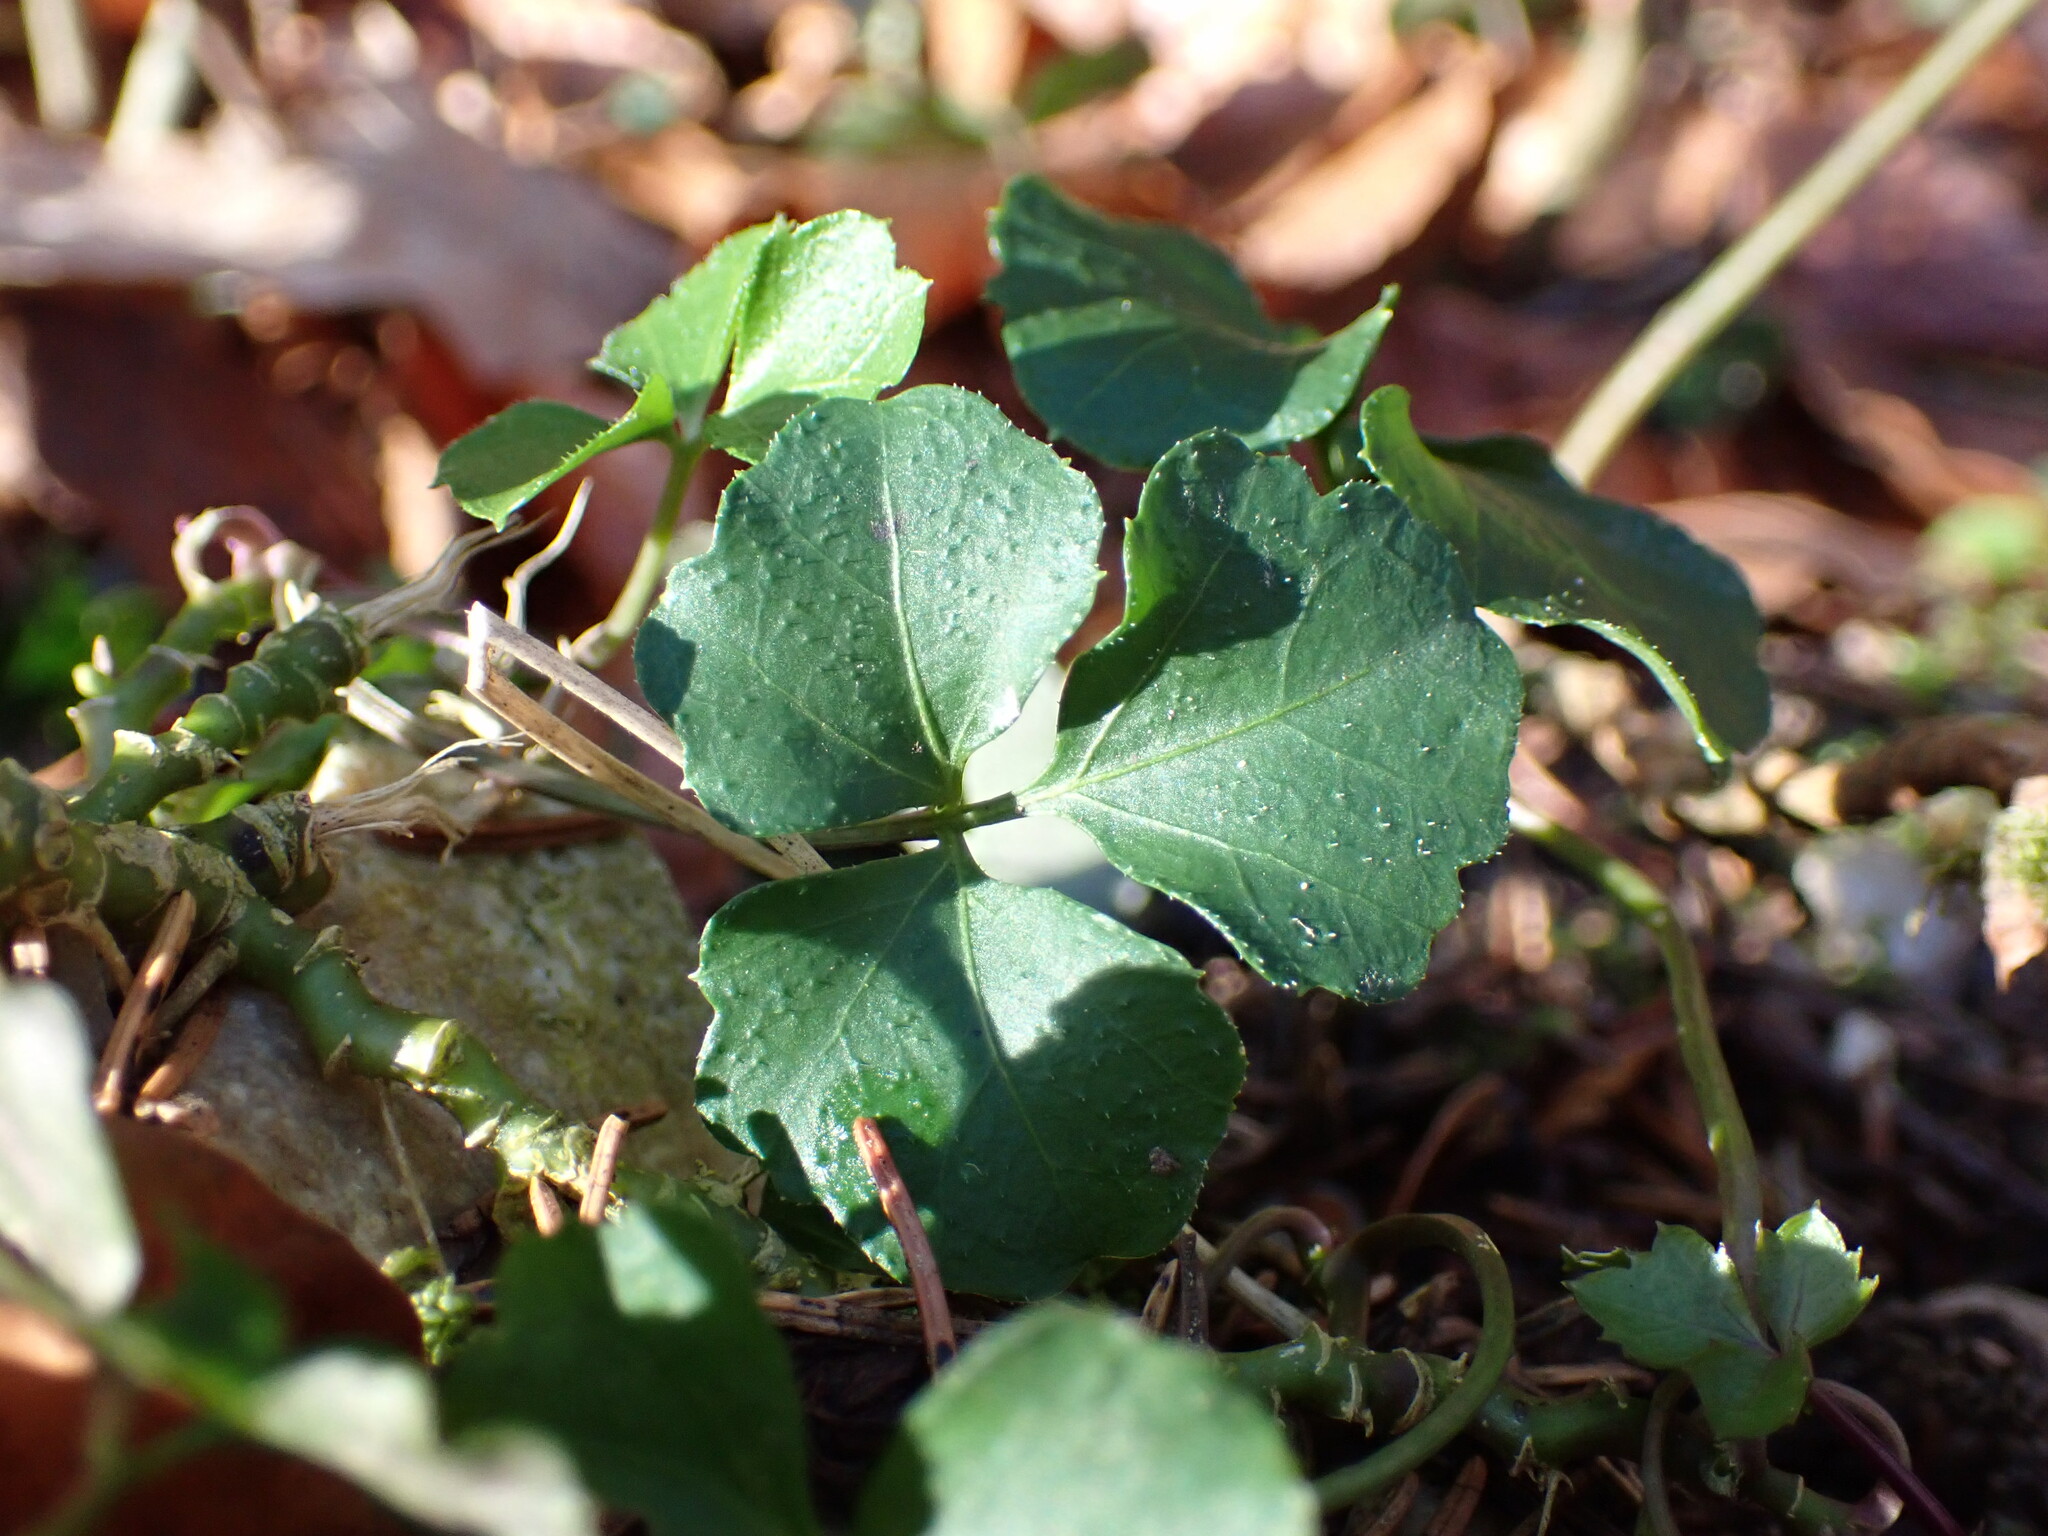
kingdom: Plantae
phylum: Tracheophyta
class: Magnoliopsida
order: Brassicales
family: Brassicaceae
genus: Cardamine
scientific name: Cardamine trifolia
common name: Trefoil cress
